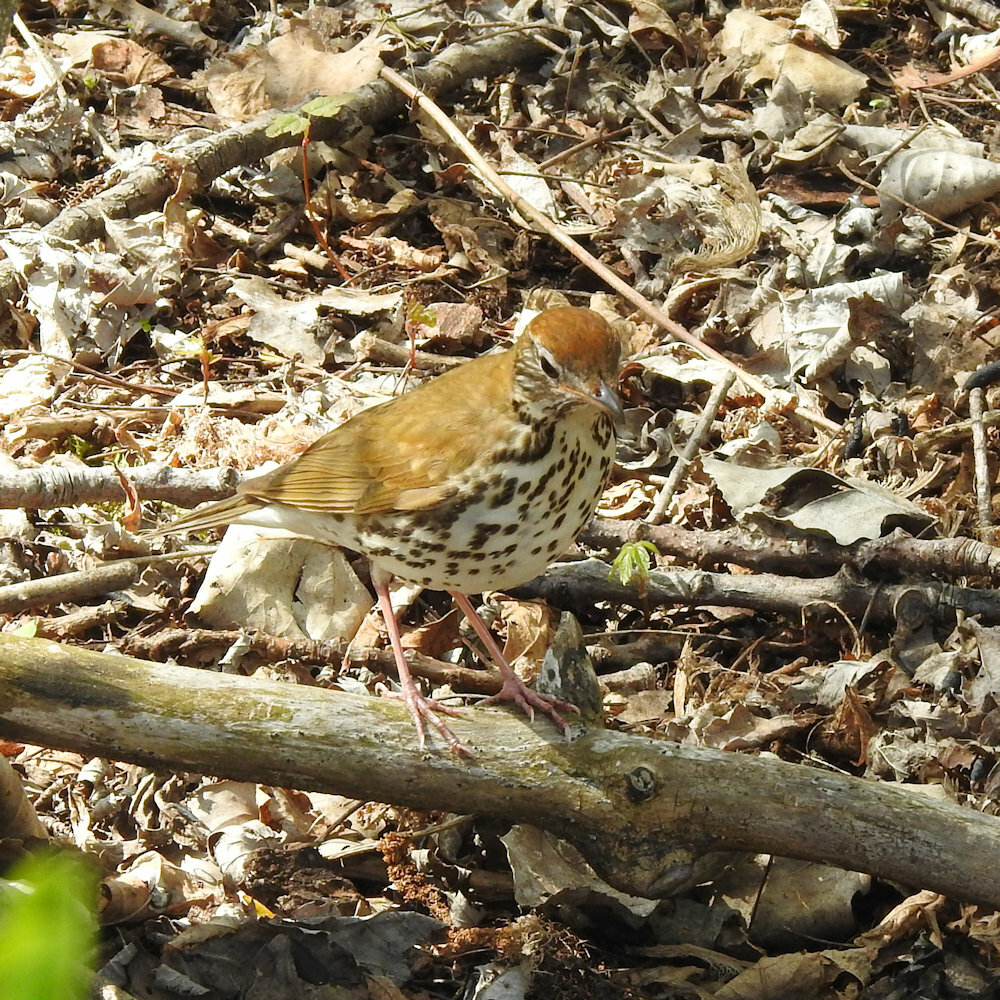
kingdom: Animalia
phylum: Chordata
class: Aves
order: Passeriformes
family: Turdidae
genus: Hylocichla
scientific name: Hylocichla mustelina
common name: Wood thrush
